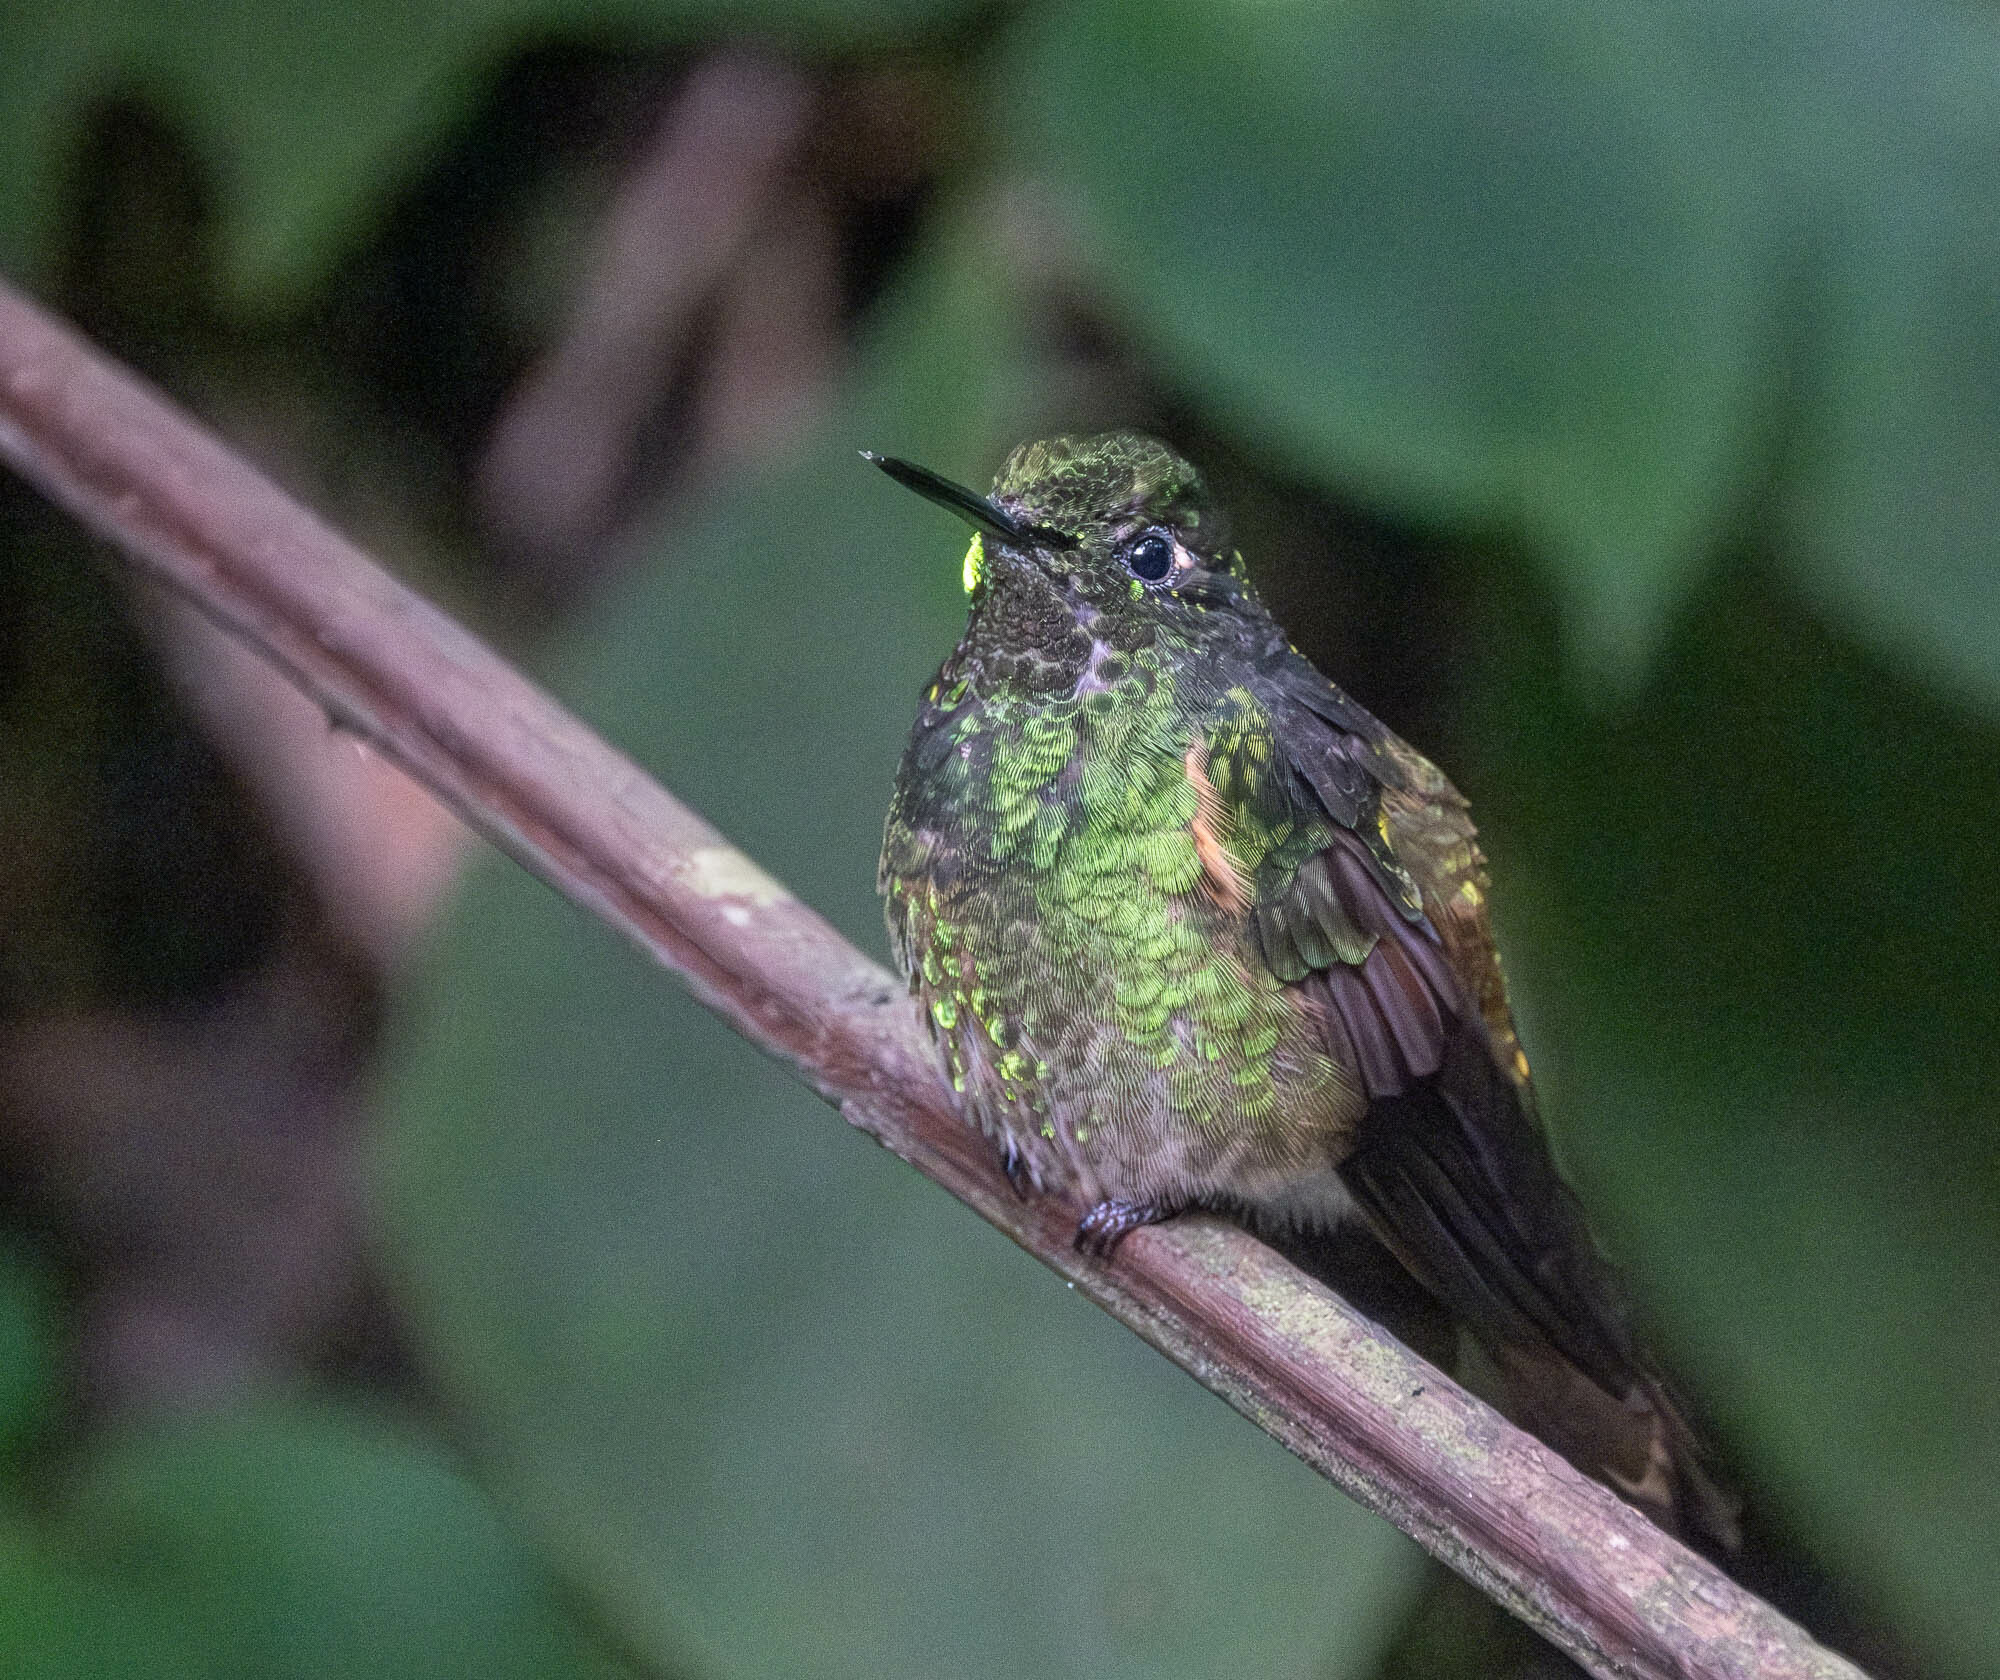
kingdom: Animalia
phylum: Chordata
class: Aves
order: Apodiformes
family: Trochilidae
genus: Boissonneaua
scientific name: Boissonneaua flavescens
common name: Buff-tailed coronet
